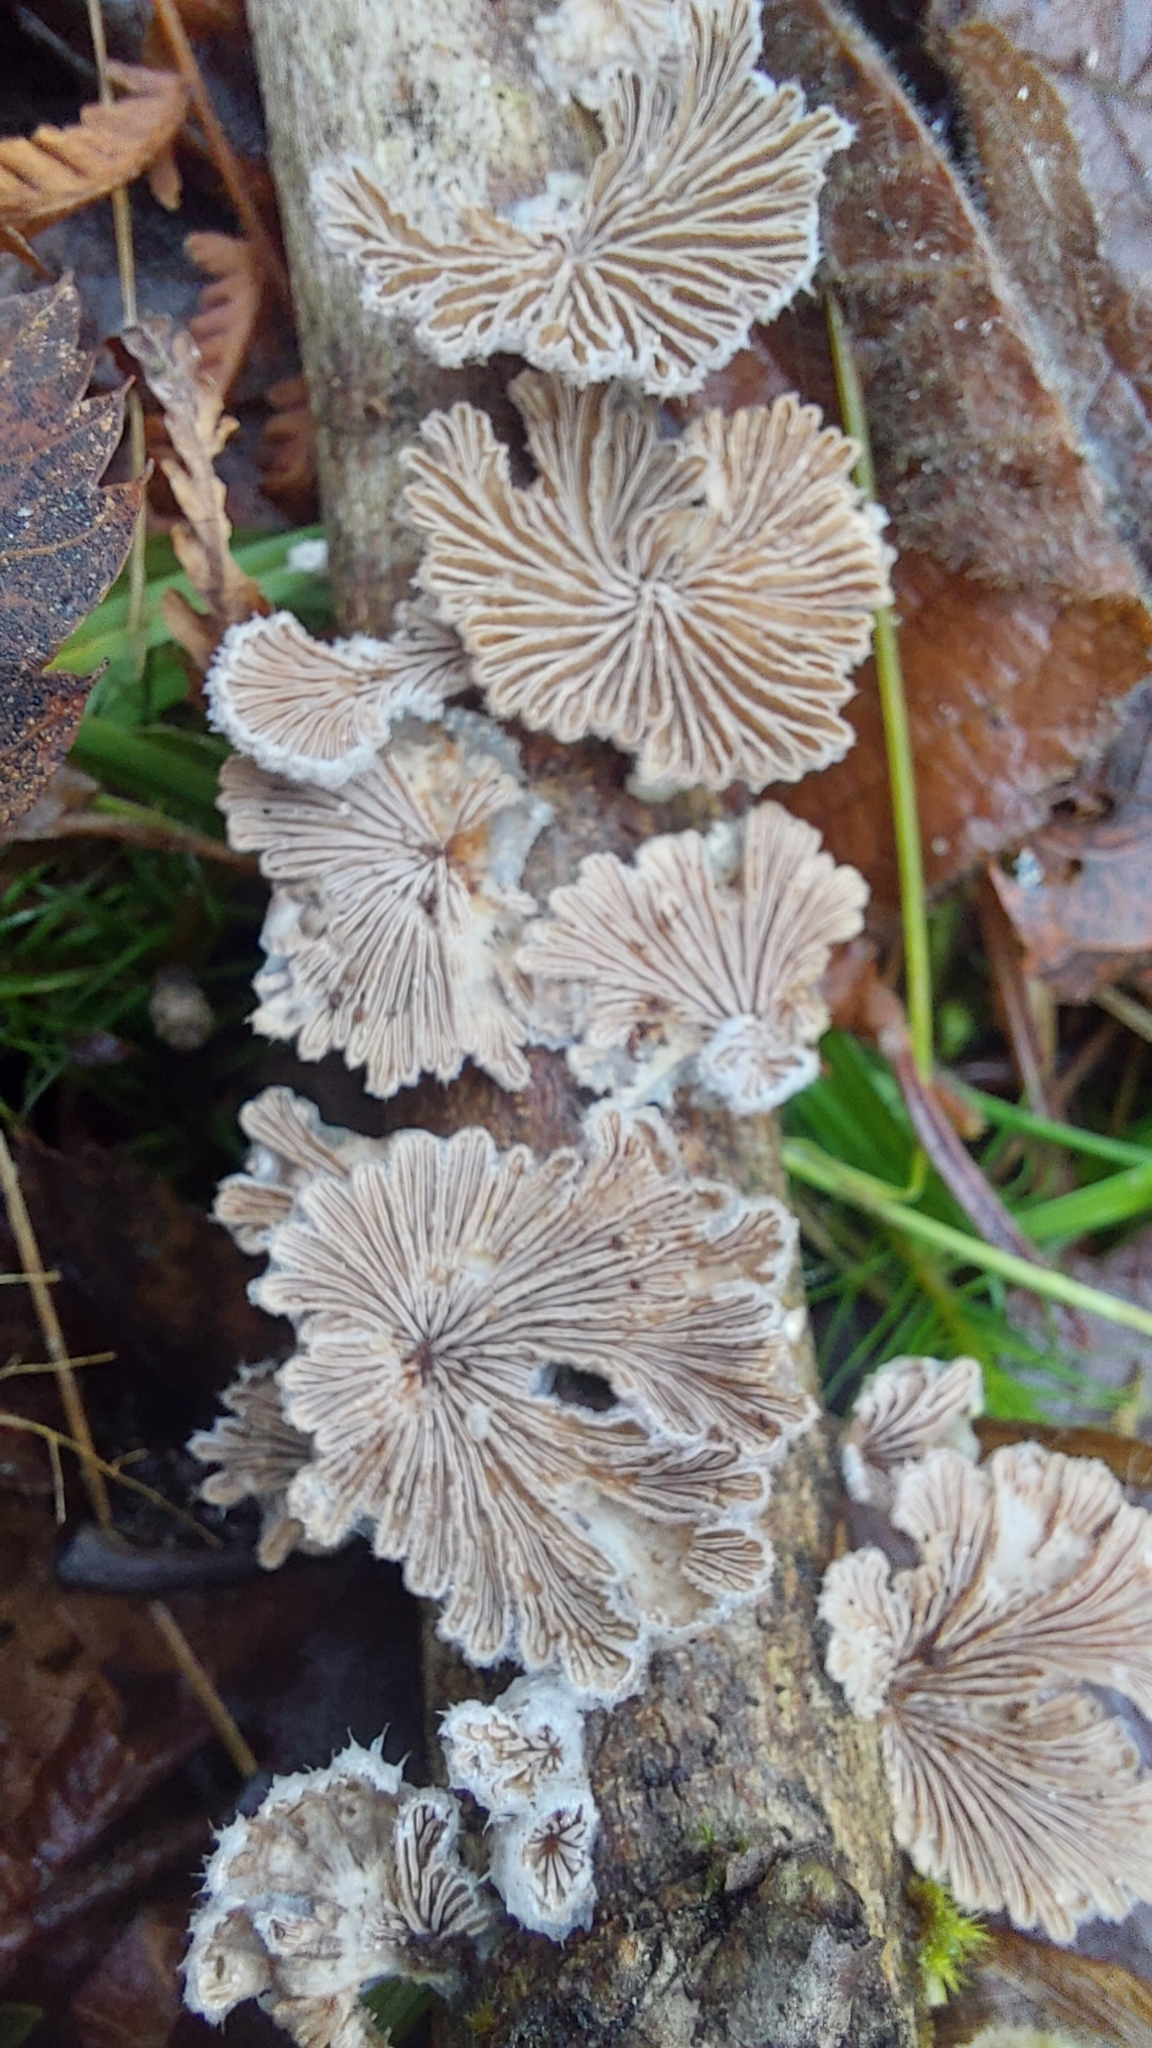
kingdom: Fungi
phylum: Basidiomycota
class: Agaricomycetes
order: Agaricales
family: Schizophyllaceae
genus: Schizophyllum
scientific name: Schizophyllum commune
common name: Common porecrust
